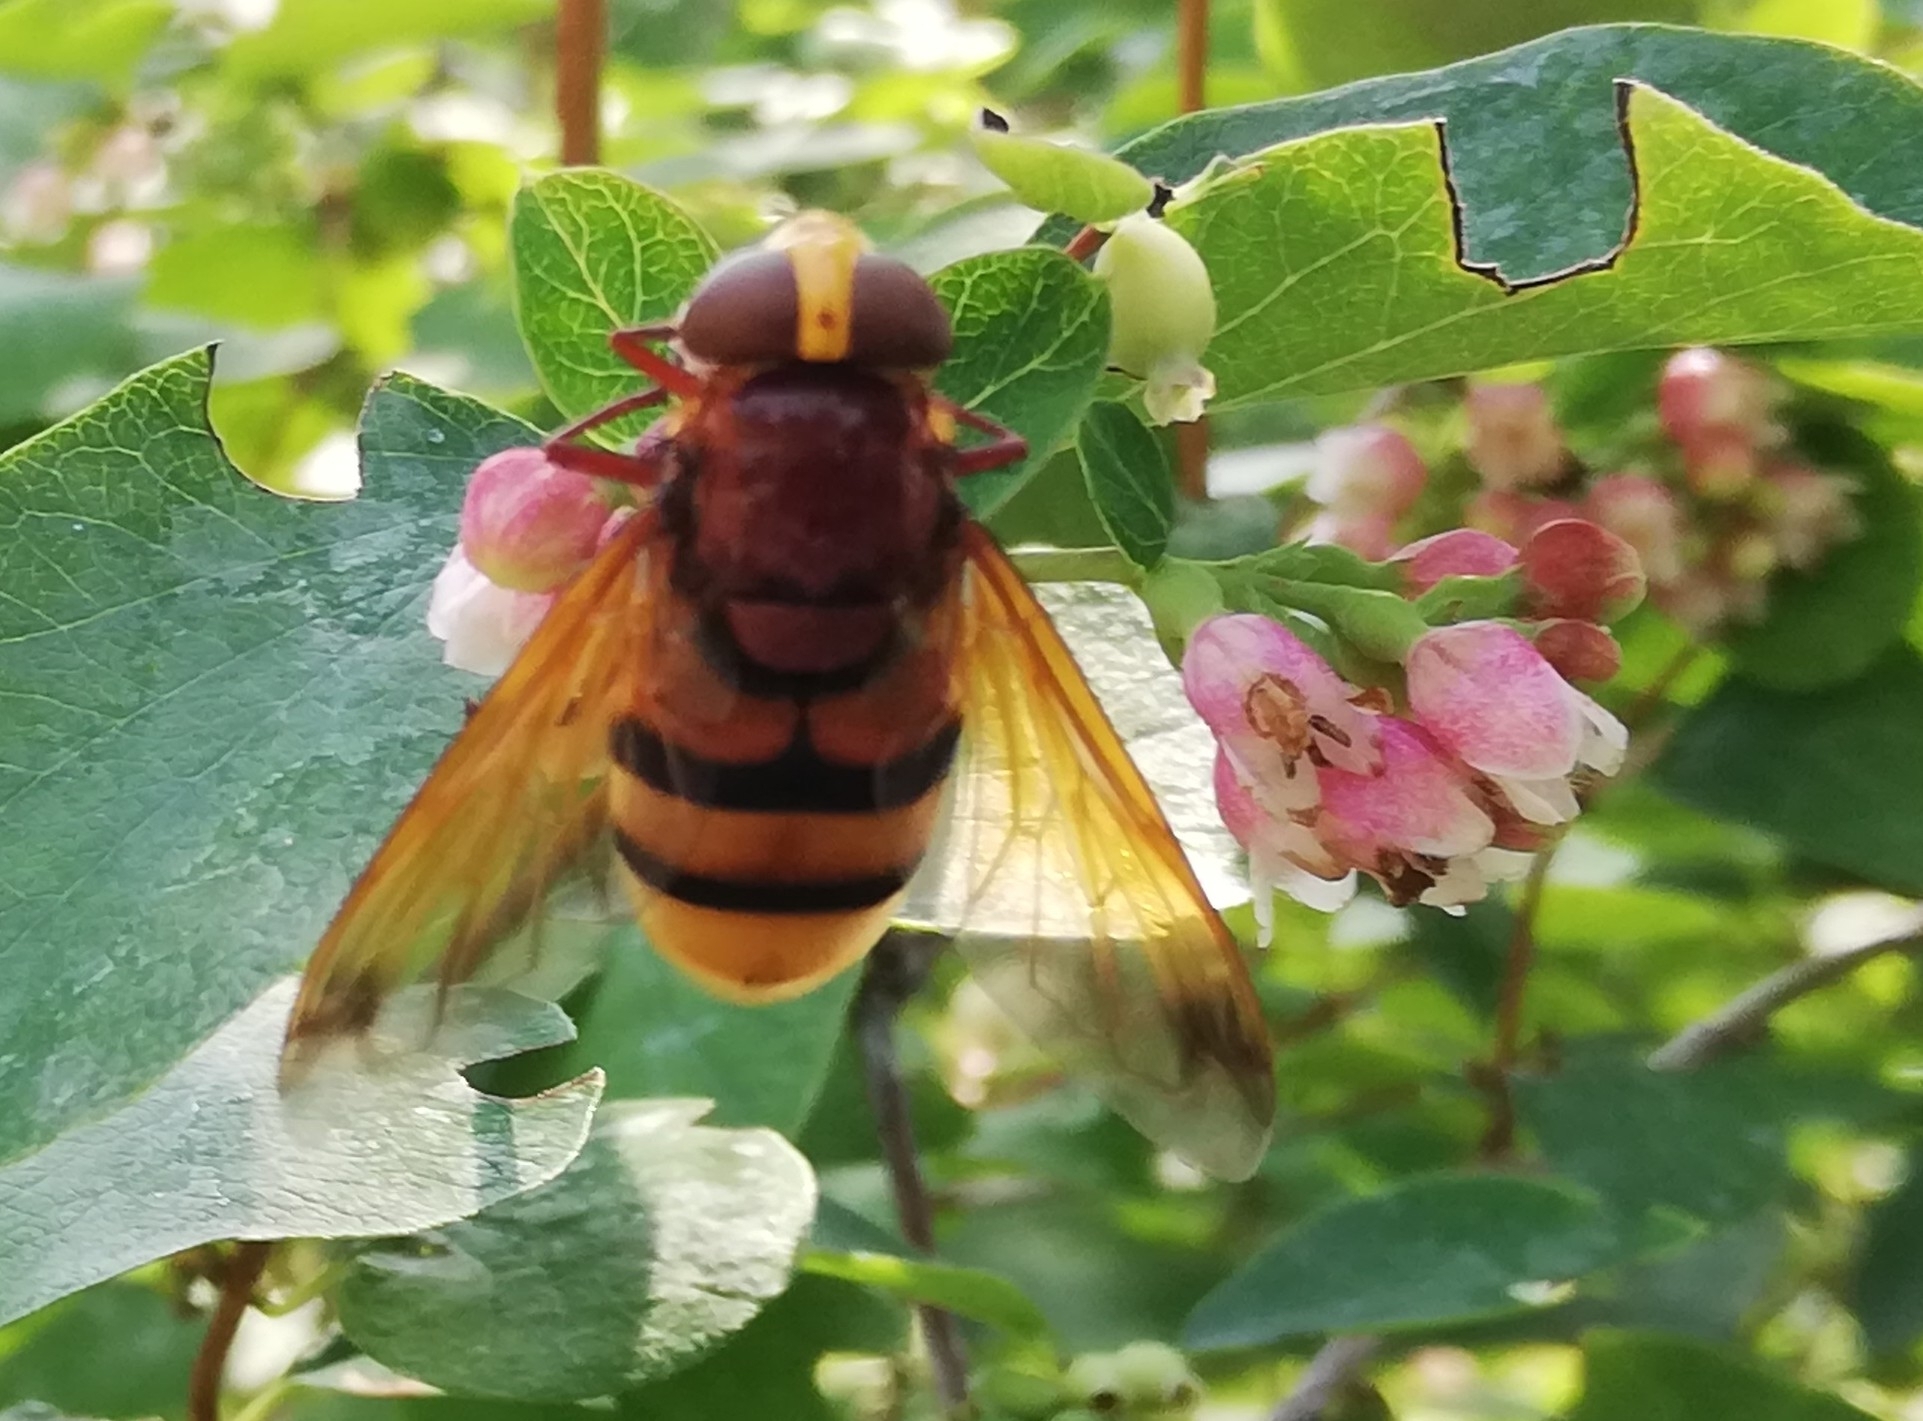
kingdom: Animalia
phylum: Arthropoda
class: Insecta
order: Diptera
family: Syrphidae
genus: Volucella
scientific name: Volucella zonaria
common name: Hornet hoverfly
